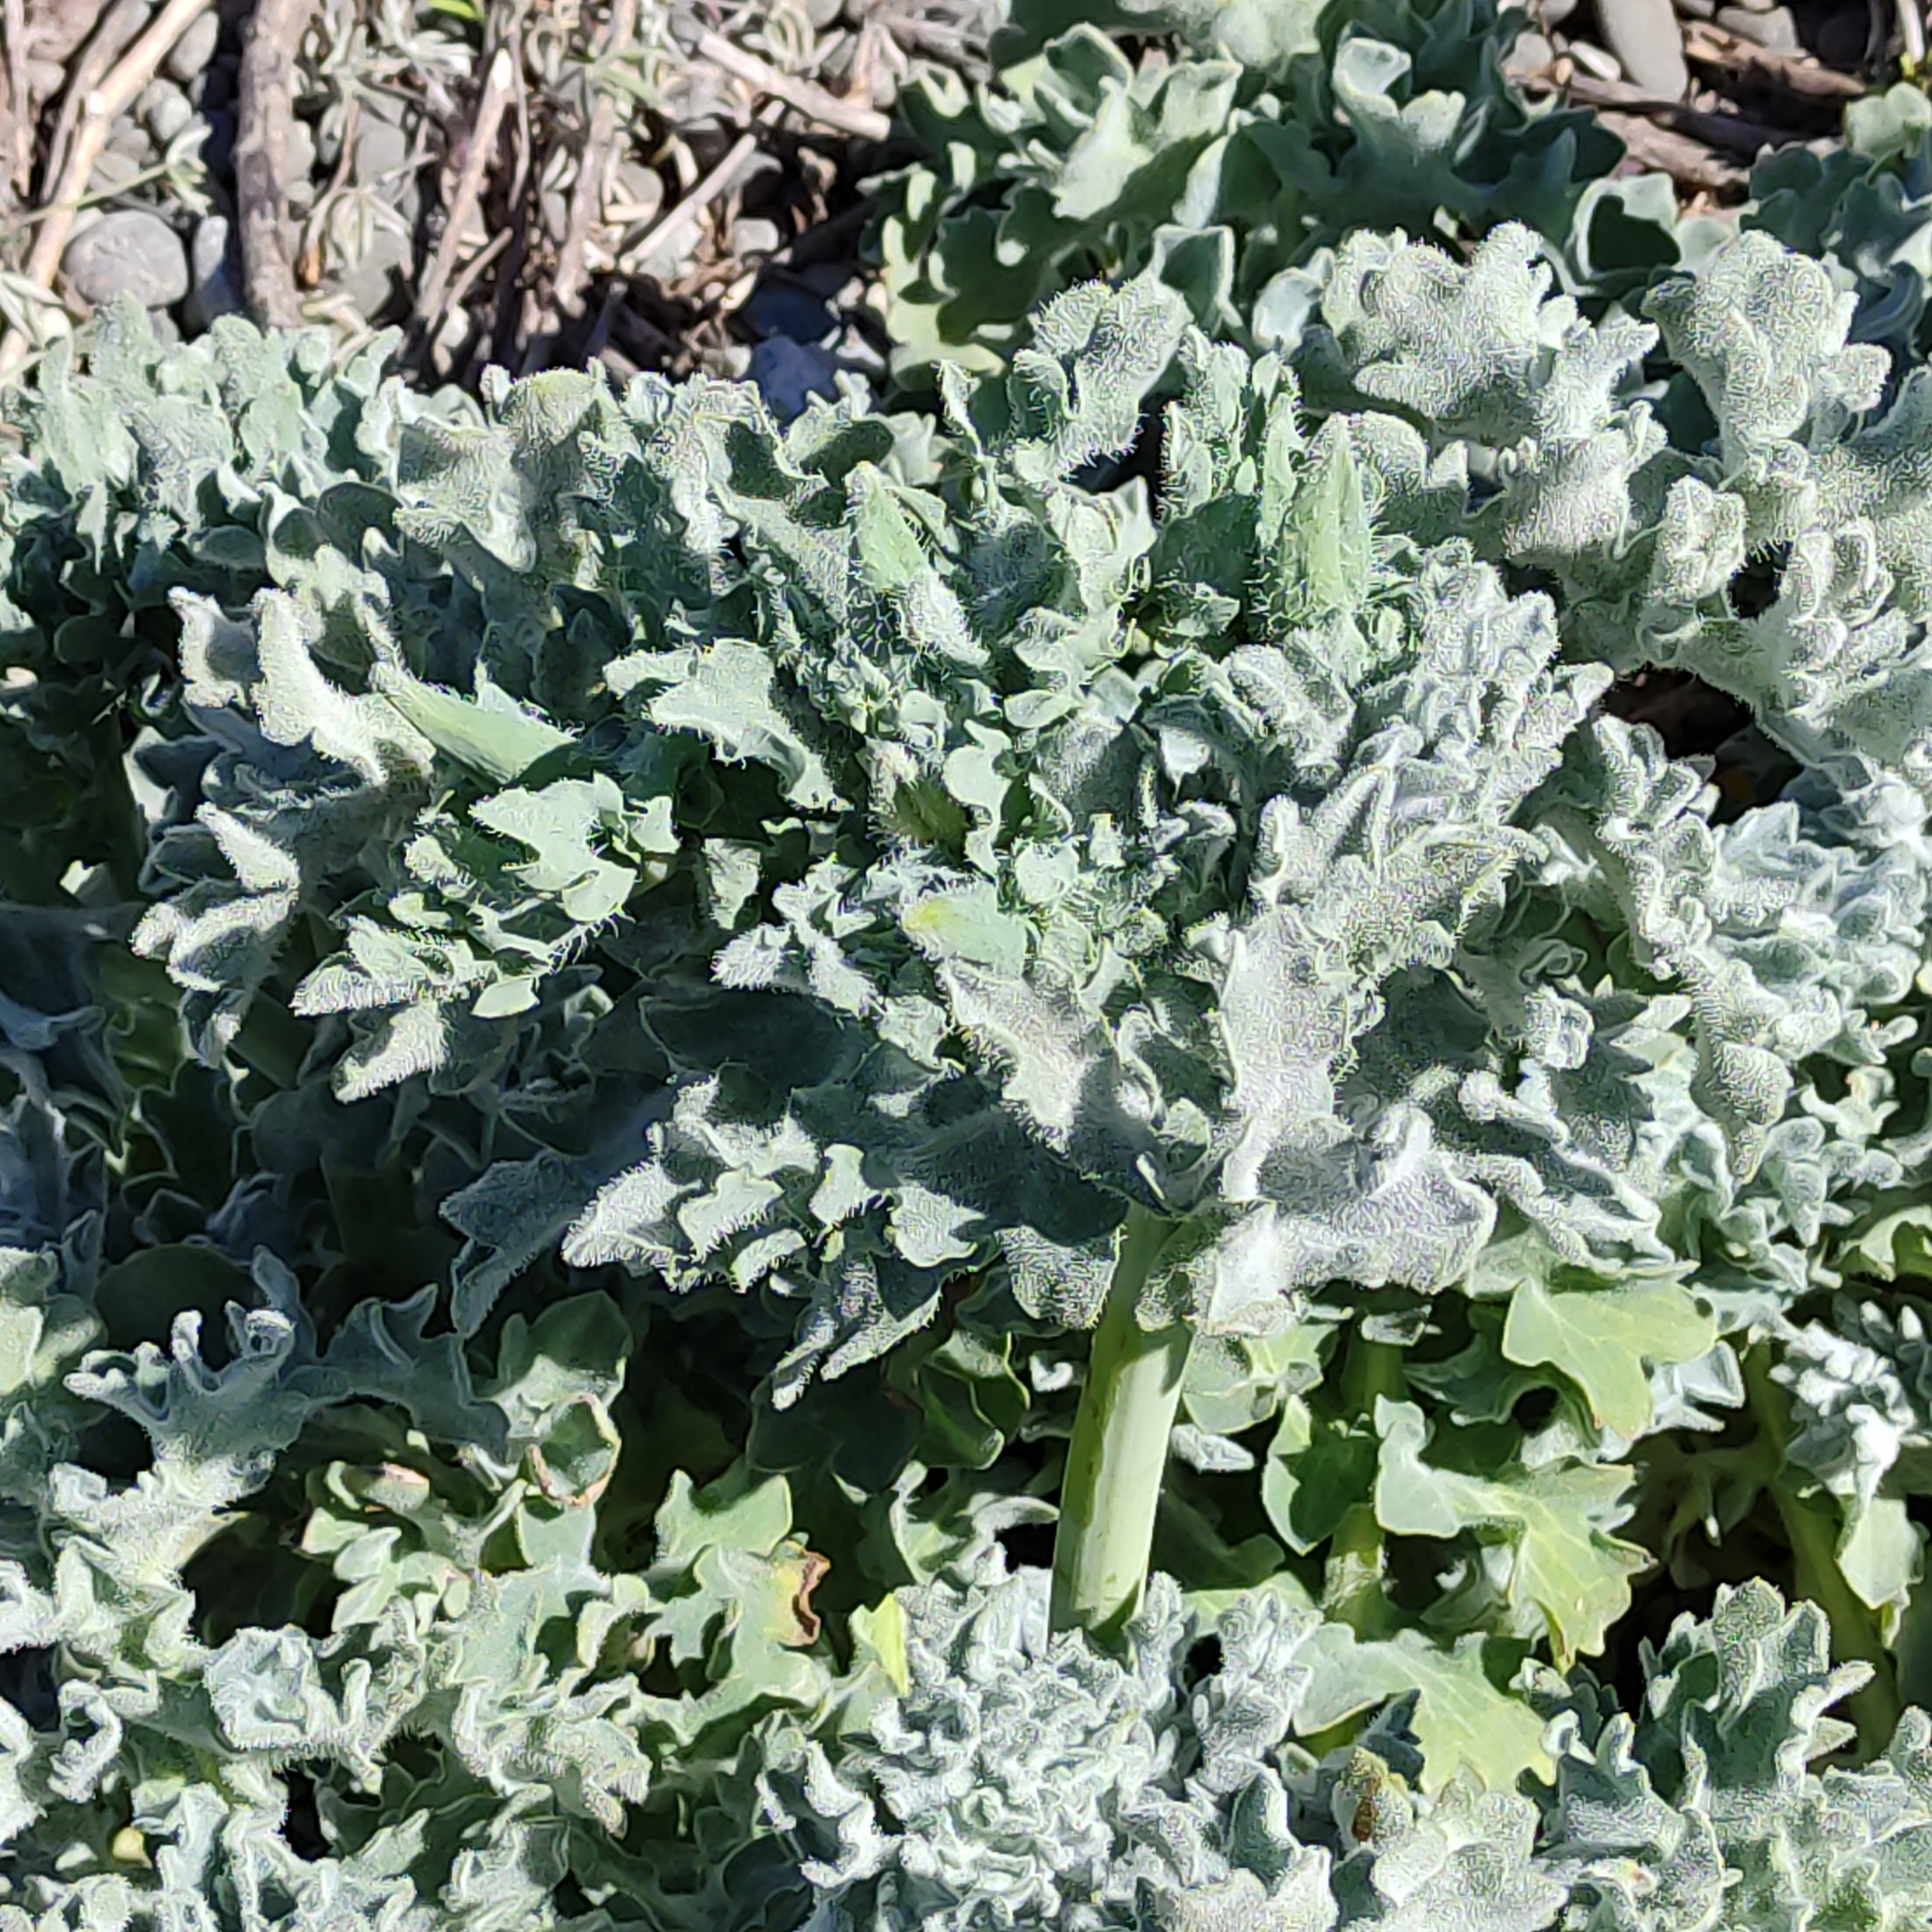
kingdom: Plantae
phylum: Tracheophyta
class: Magnoliopsida
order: Ranunculales
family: Papaveraceae
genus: Glaucium
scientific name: Glaucium flavum
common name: Yellow horned-poppy
